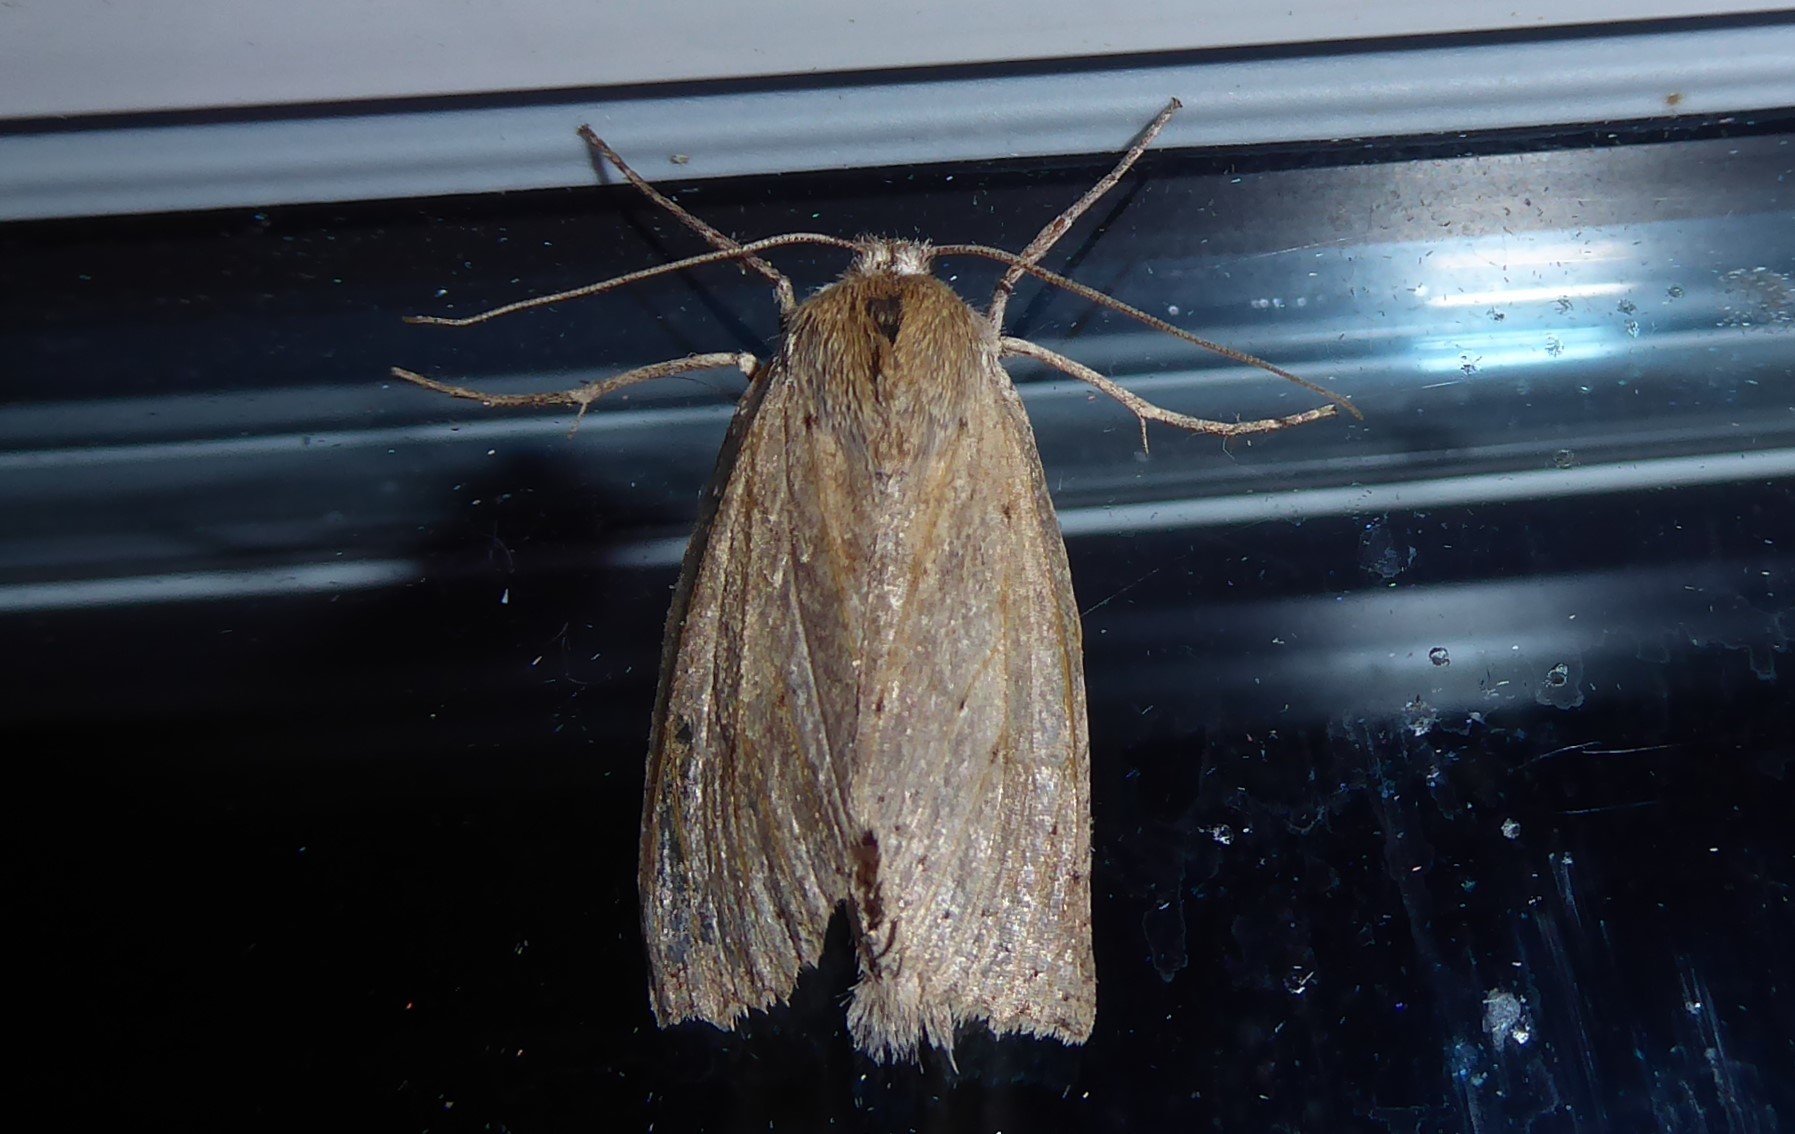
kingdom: Animalia
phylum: Arthropoda
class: Insecta
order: Lepidoptera
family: Geometridae
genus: Declana
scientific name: Declana leptomera
